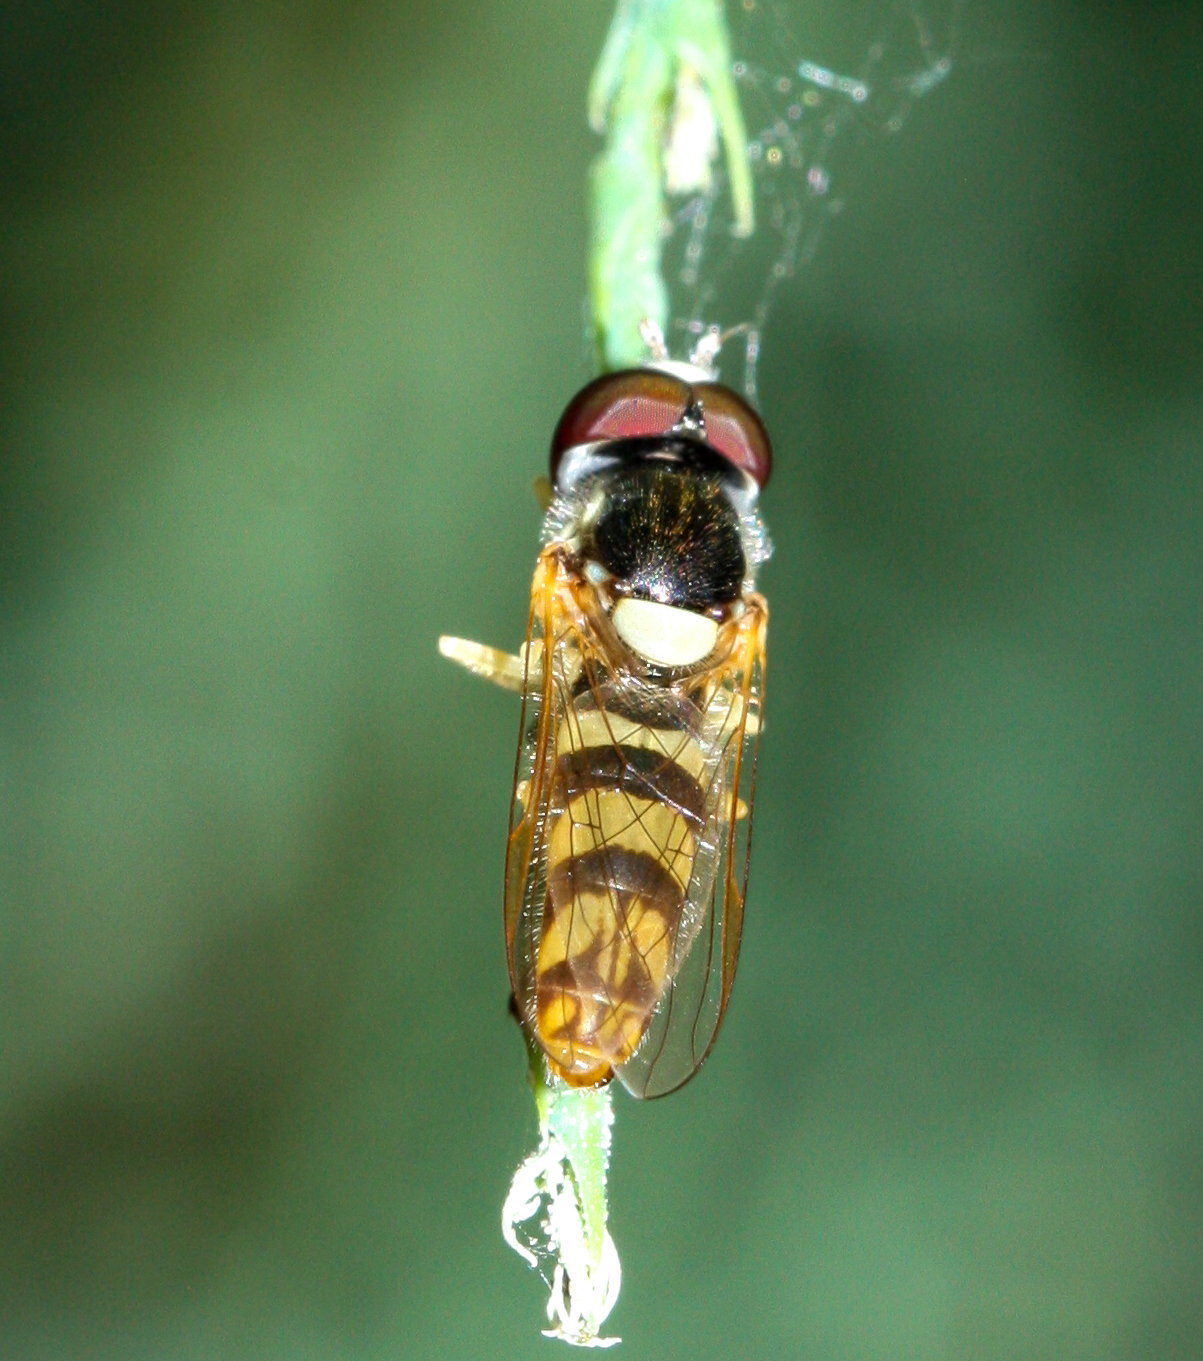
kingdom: Animalia
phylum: Arthropoda
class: Insecta
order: Diptera
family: Syrphidae
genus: Allograpta
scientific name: Allograpta exotica
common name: Syrphid fly
